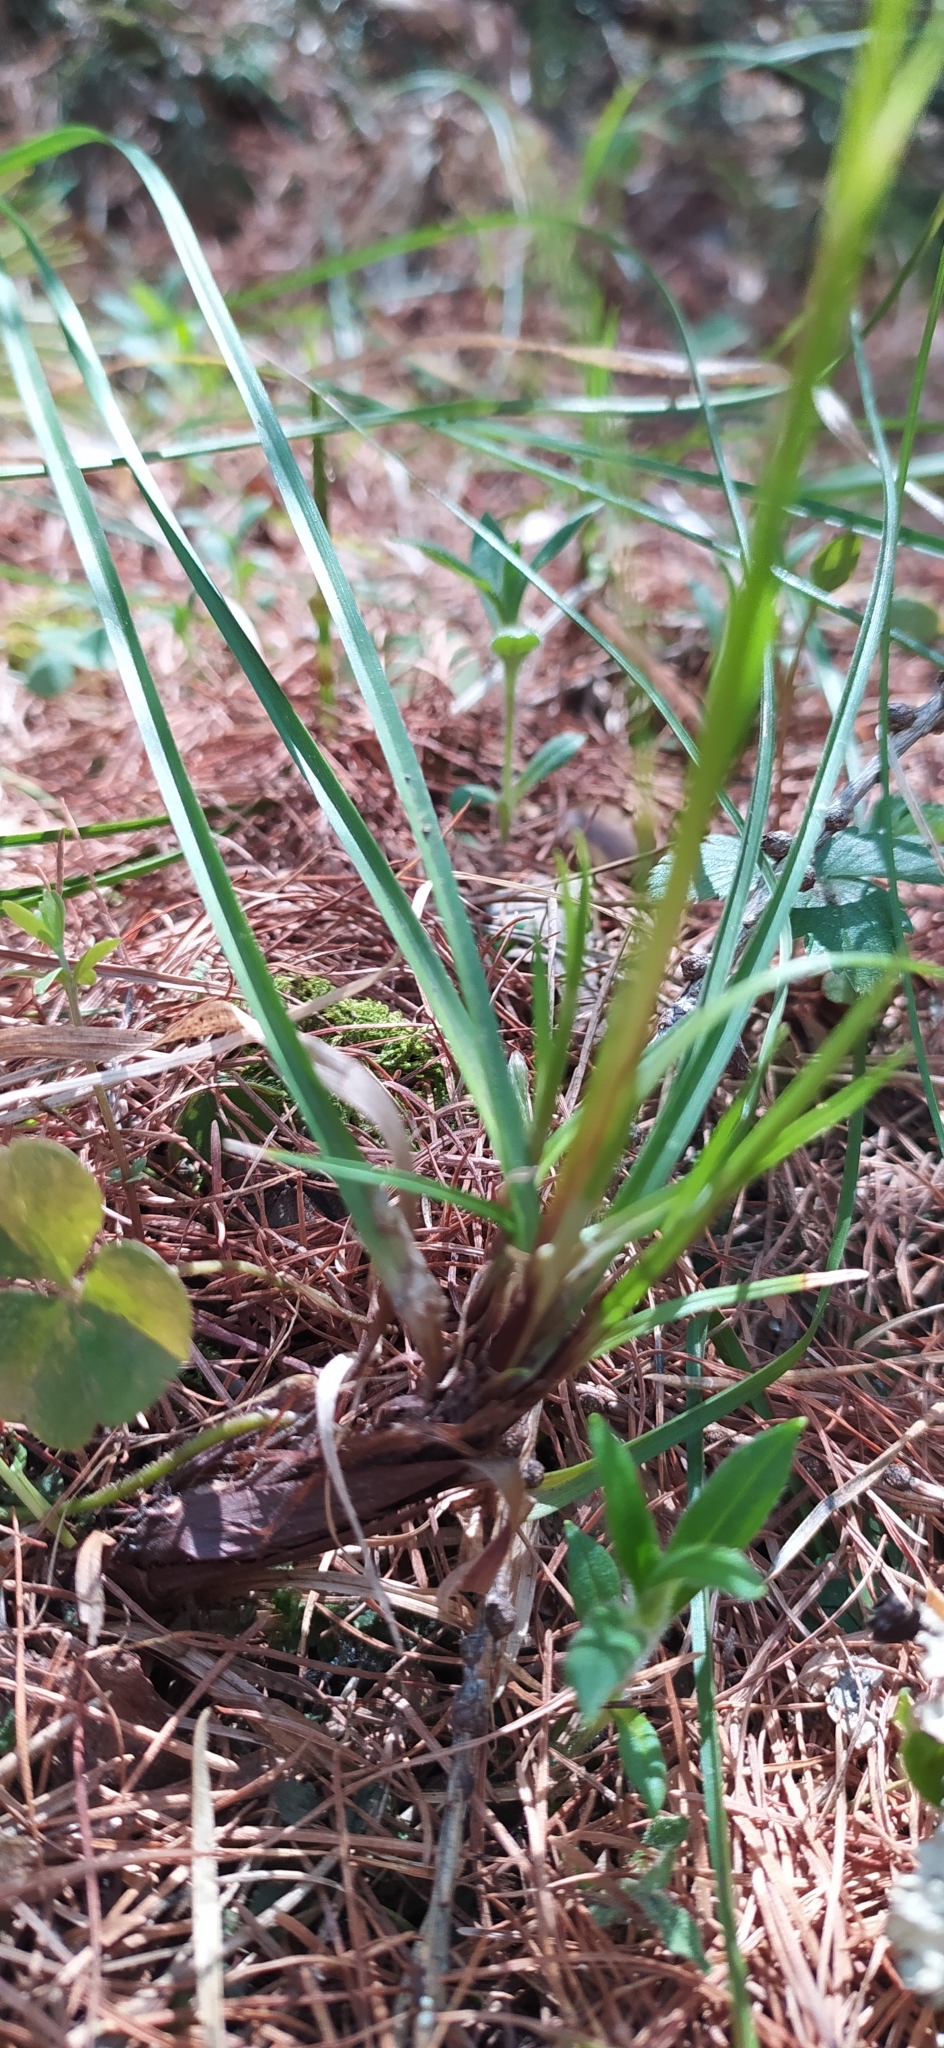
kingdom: Plantae
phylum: Tracheophyta
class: Liliopsida
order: Poales
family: Cyperaceae
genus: Carex
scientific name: Carex digitata
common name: Fingered sedge
